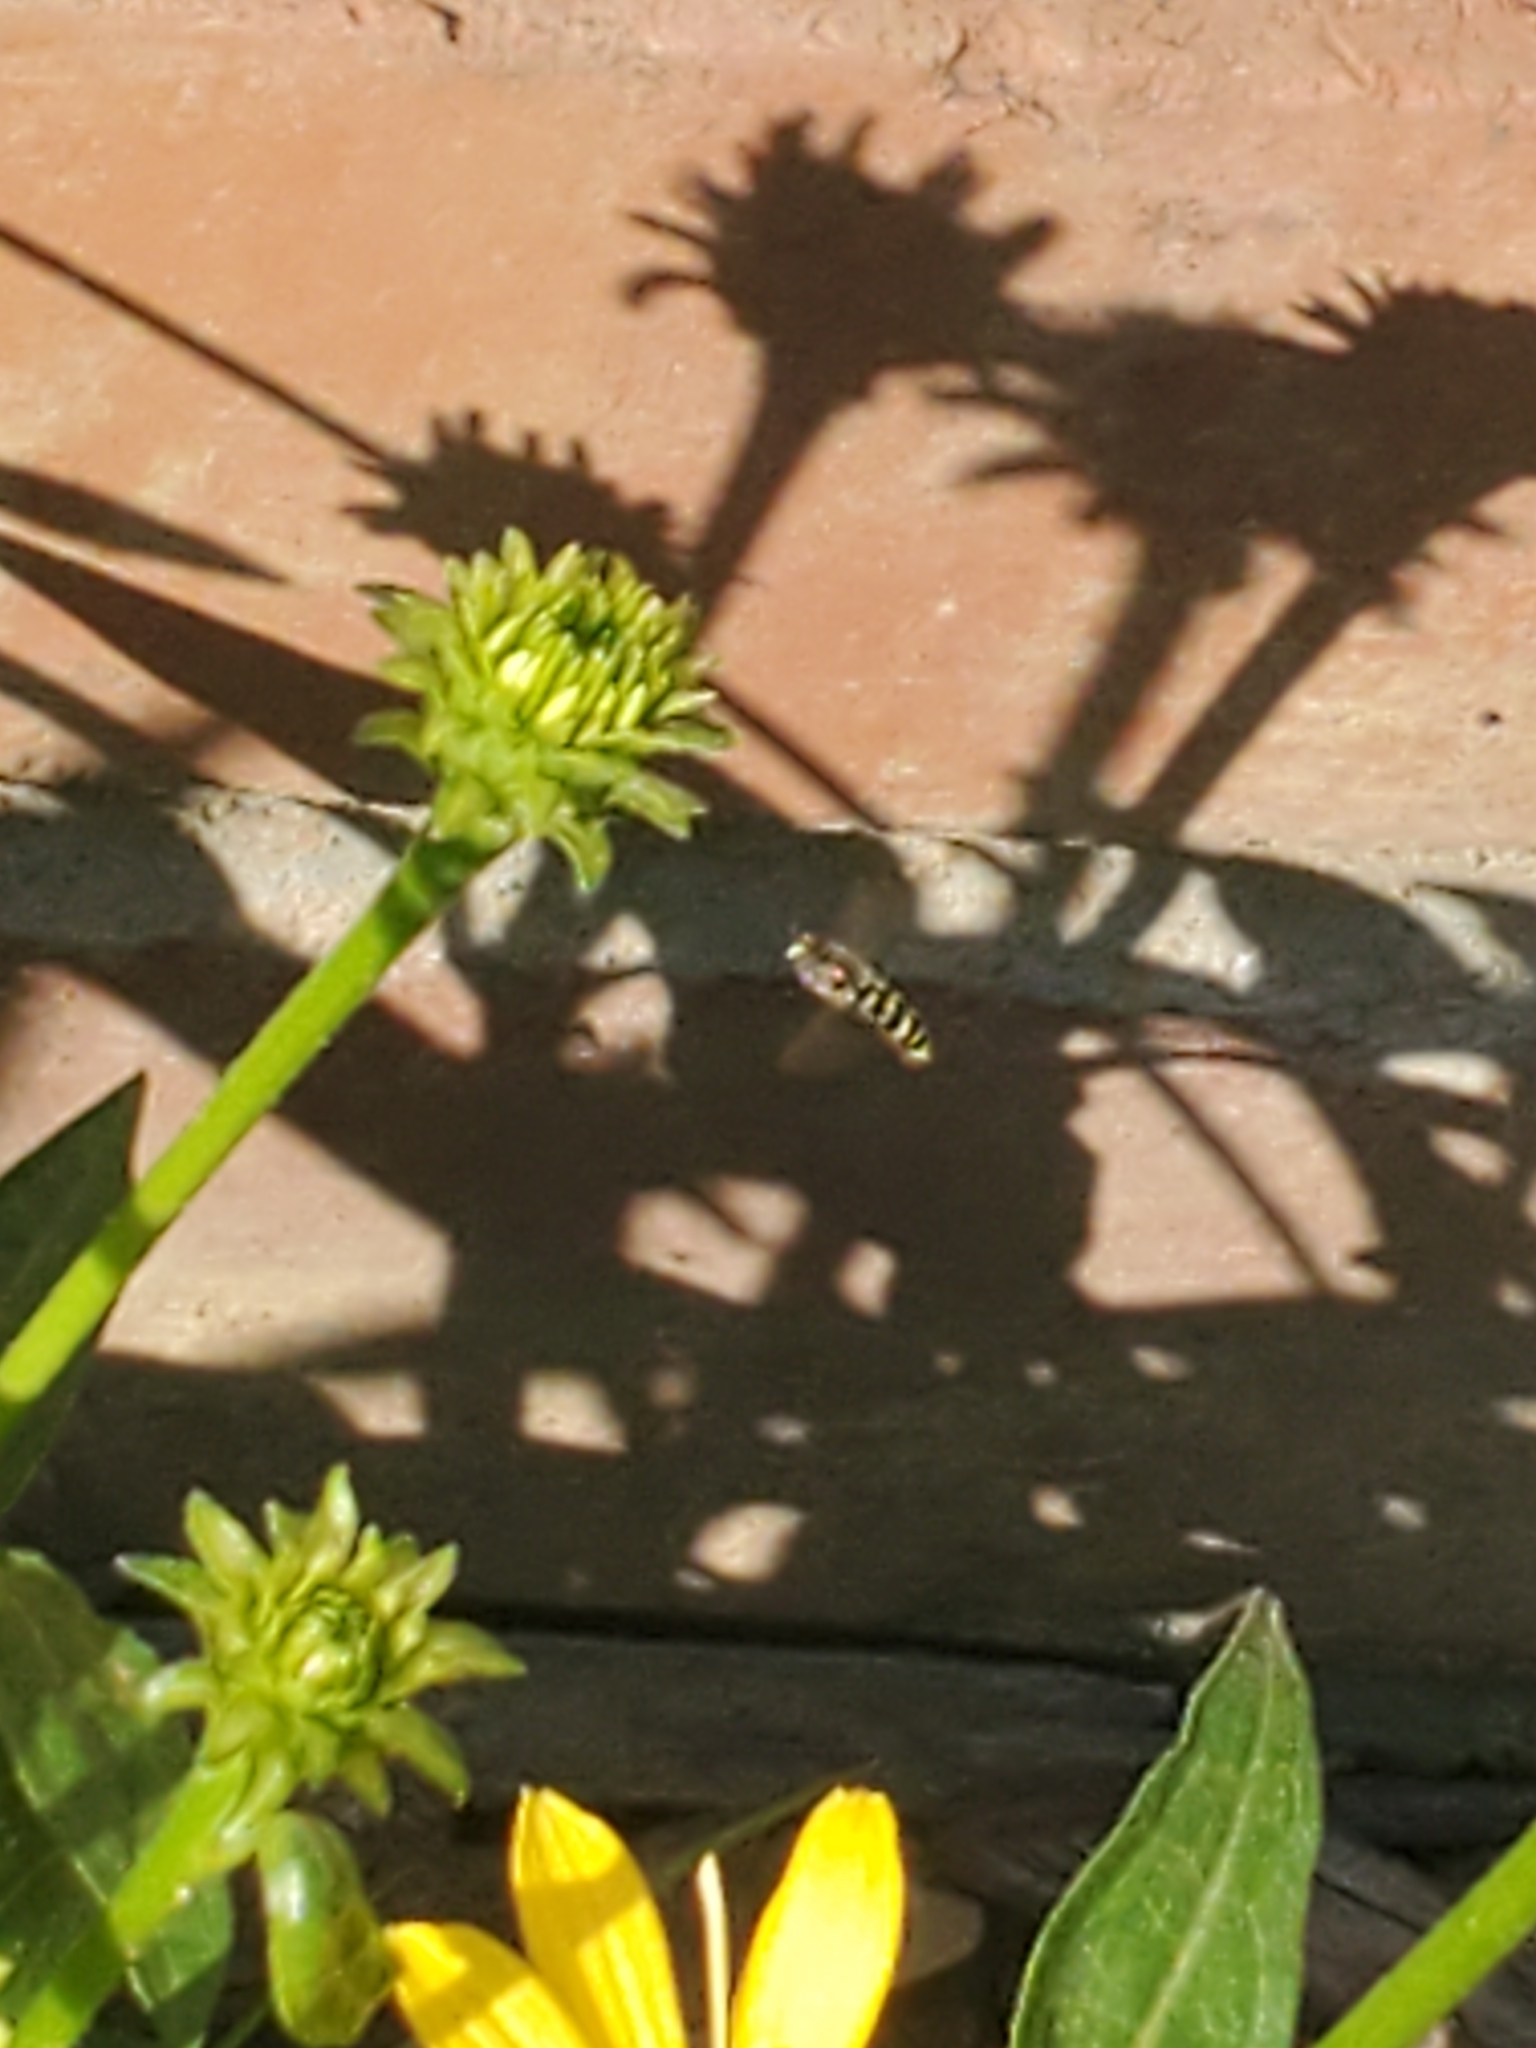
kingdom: Animalia
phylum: Arthropoda
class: Insecta
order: Diptera
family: Syrphidae
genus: Eupeodes
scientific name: Eupeodes volucris
